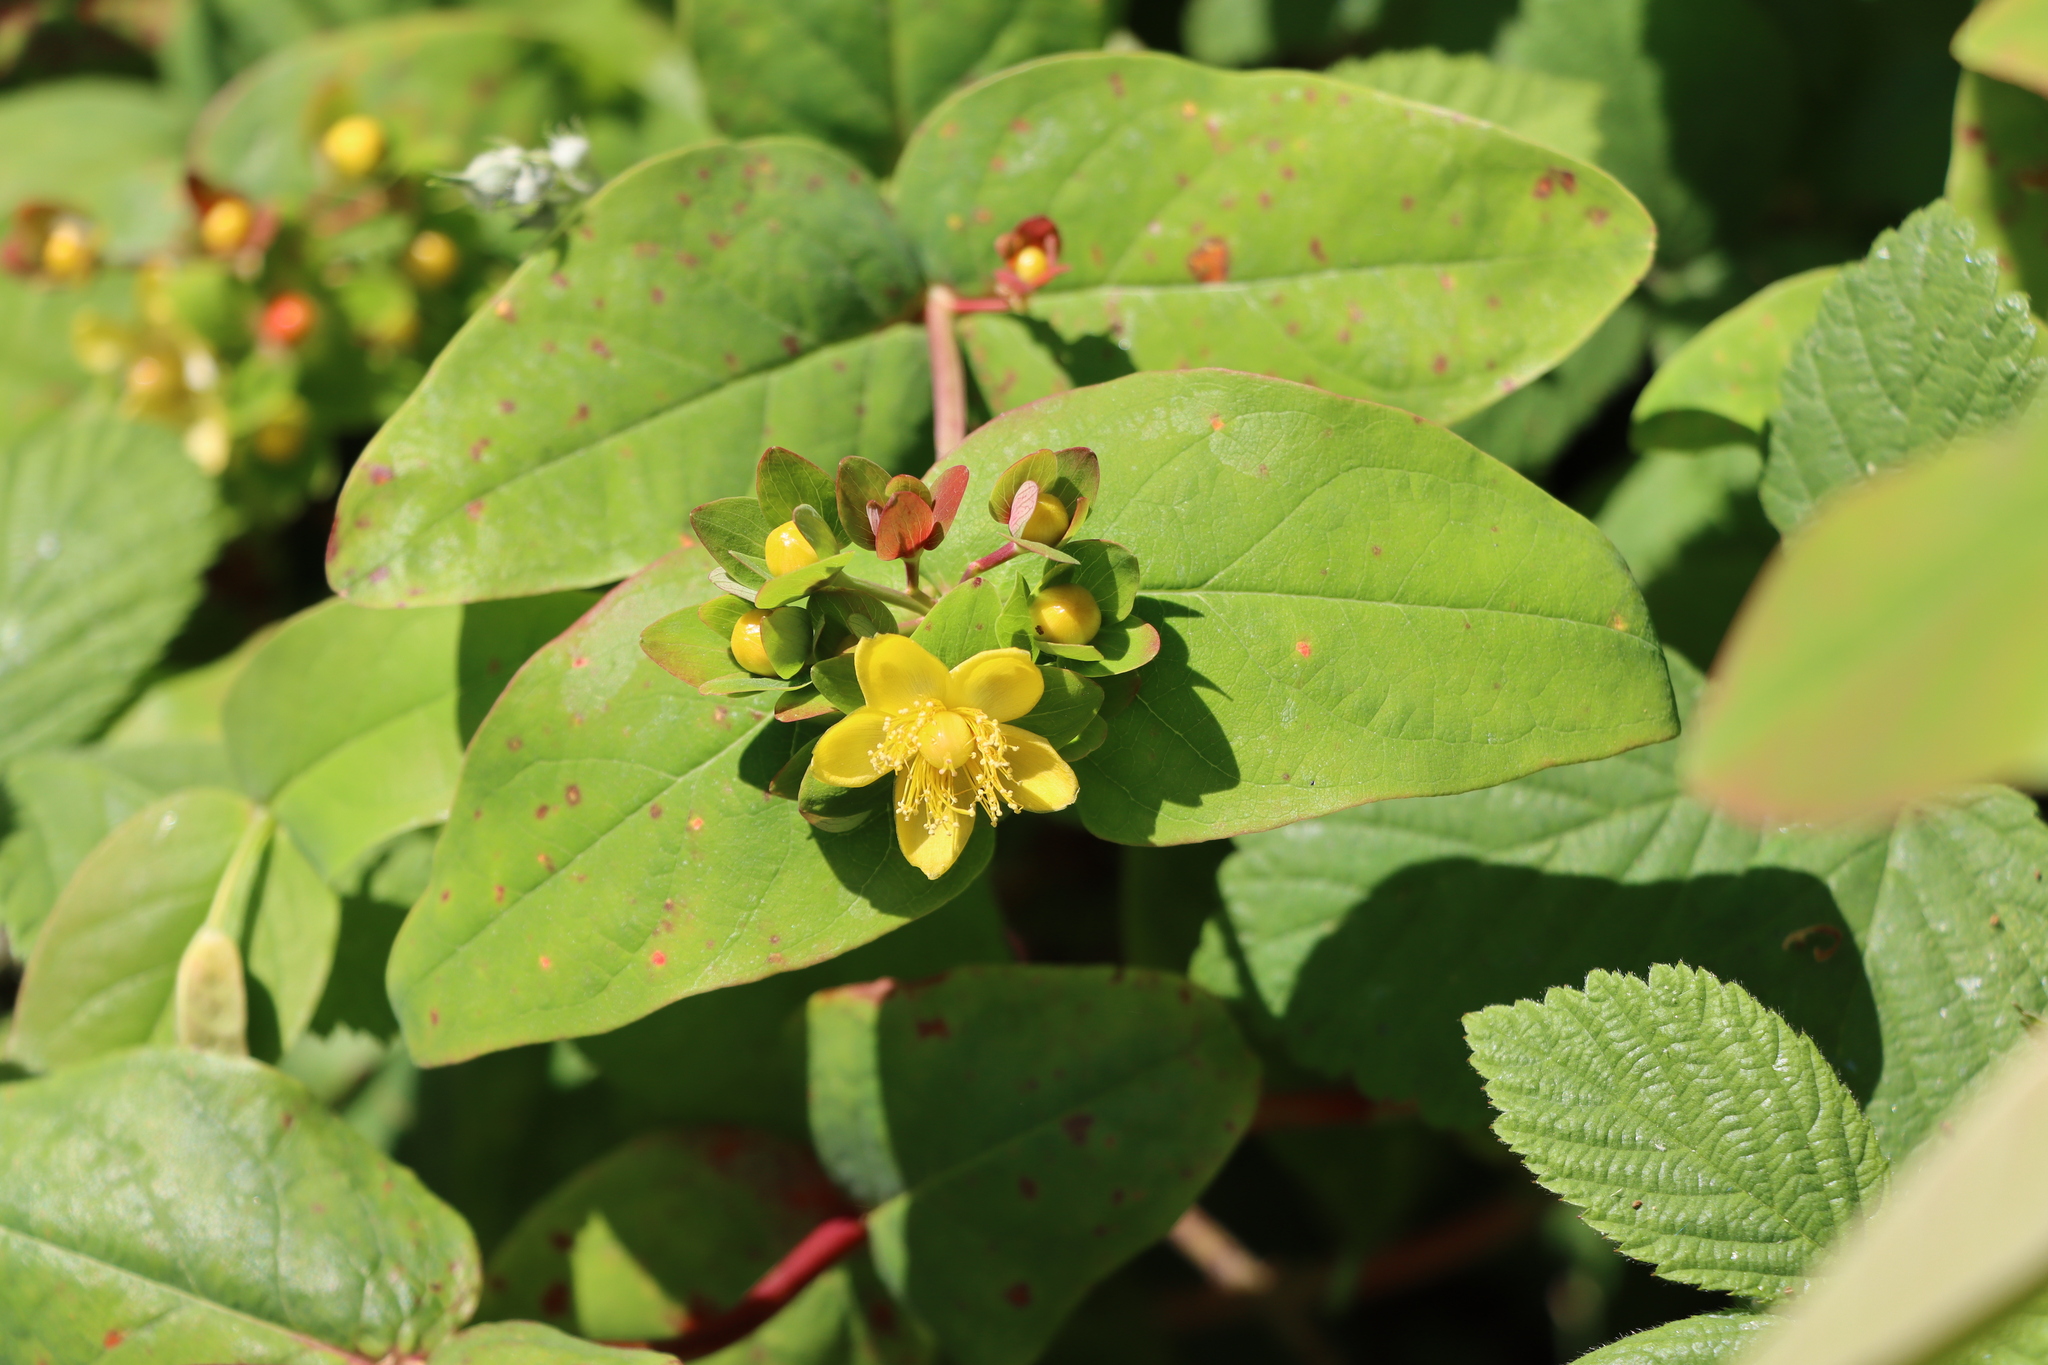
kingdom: Plantae
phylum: Tracheophyta
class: Magnoliopsida
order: Malpighiales
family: Hypericaceae
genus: Hypericum
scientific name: Hypericum androsaemum
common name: Sweet-amber
